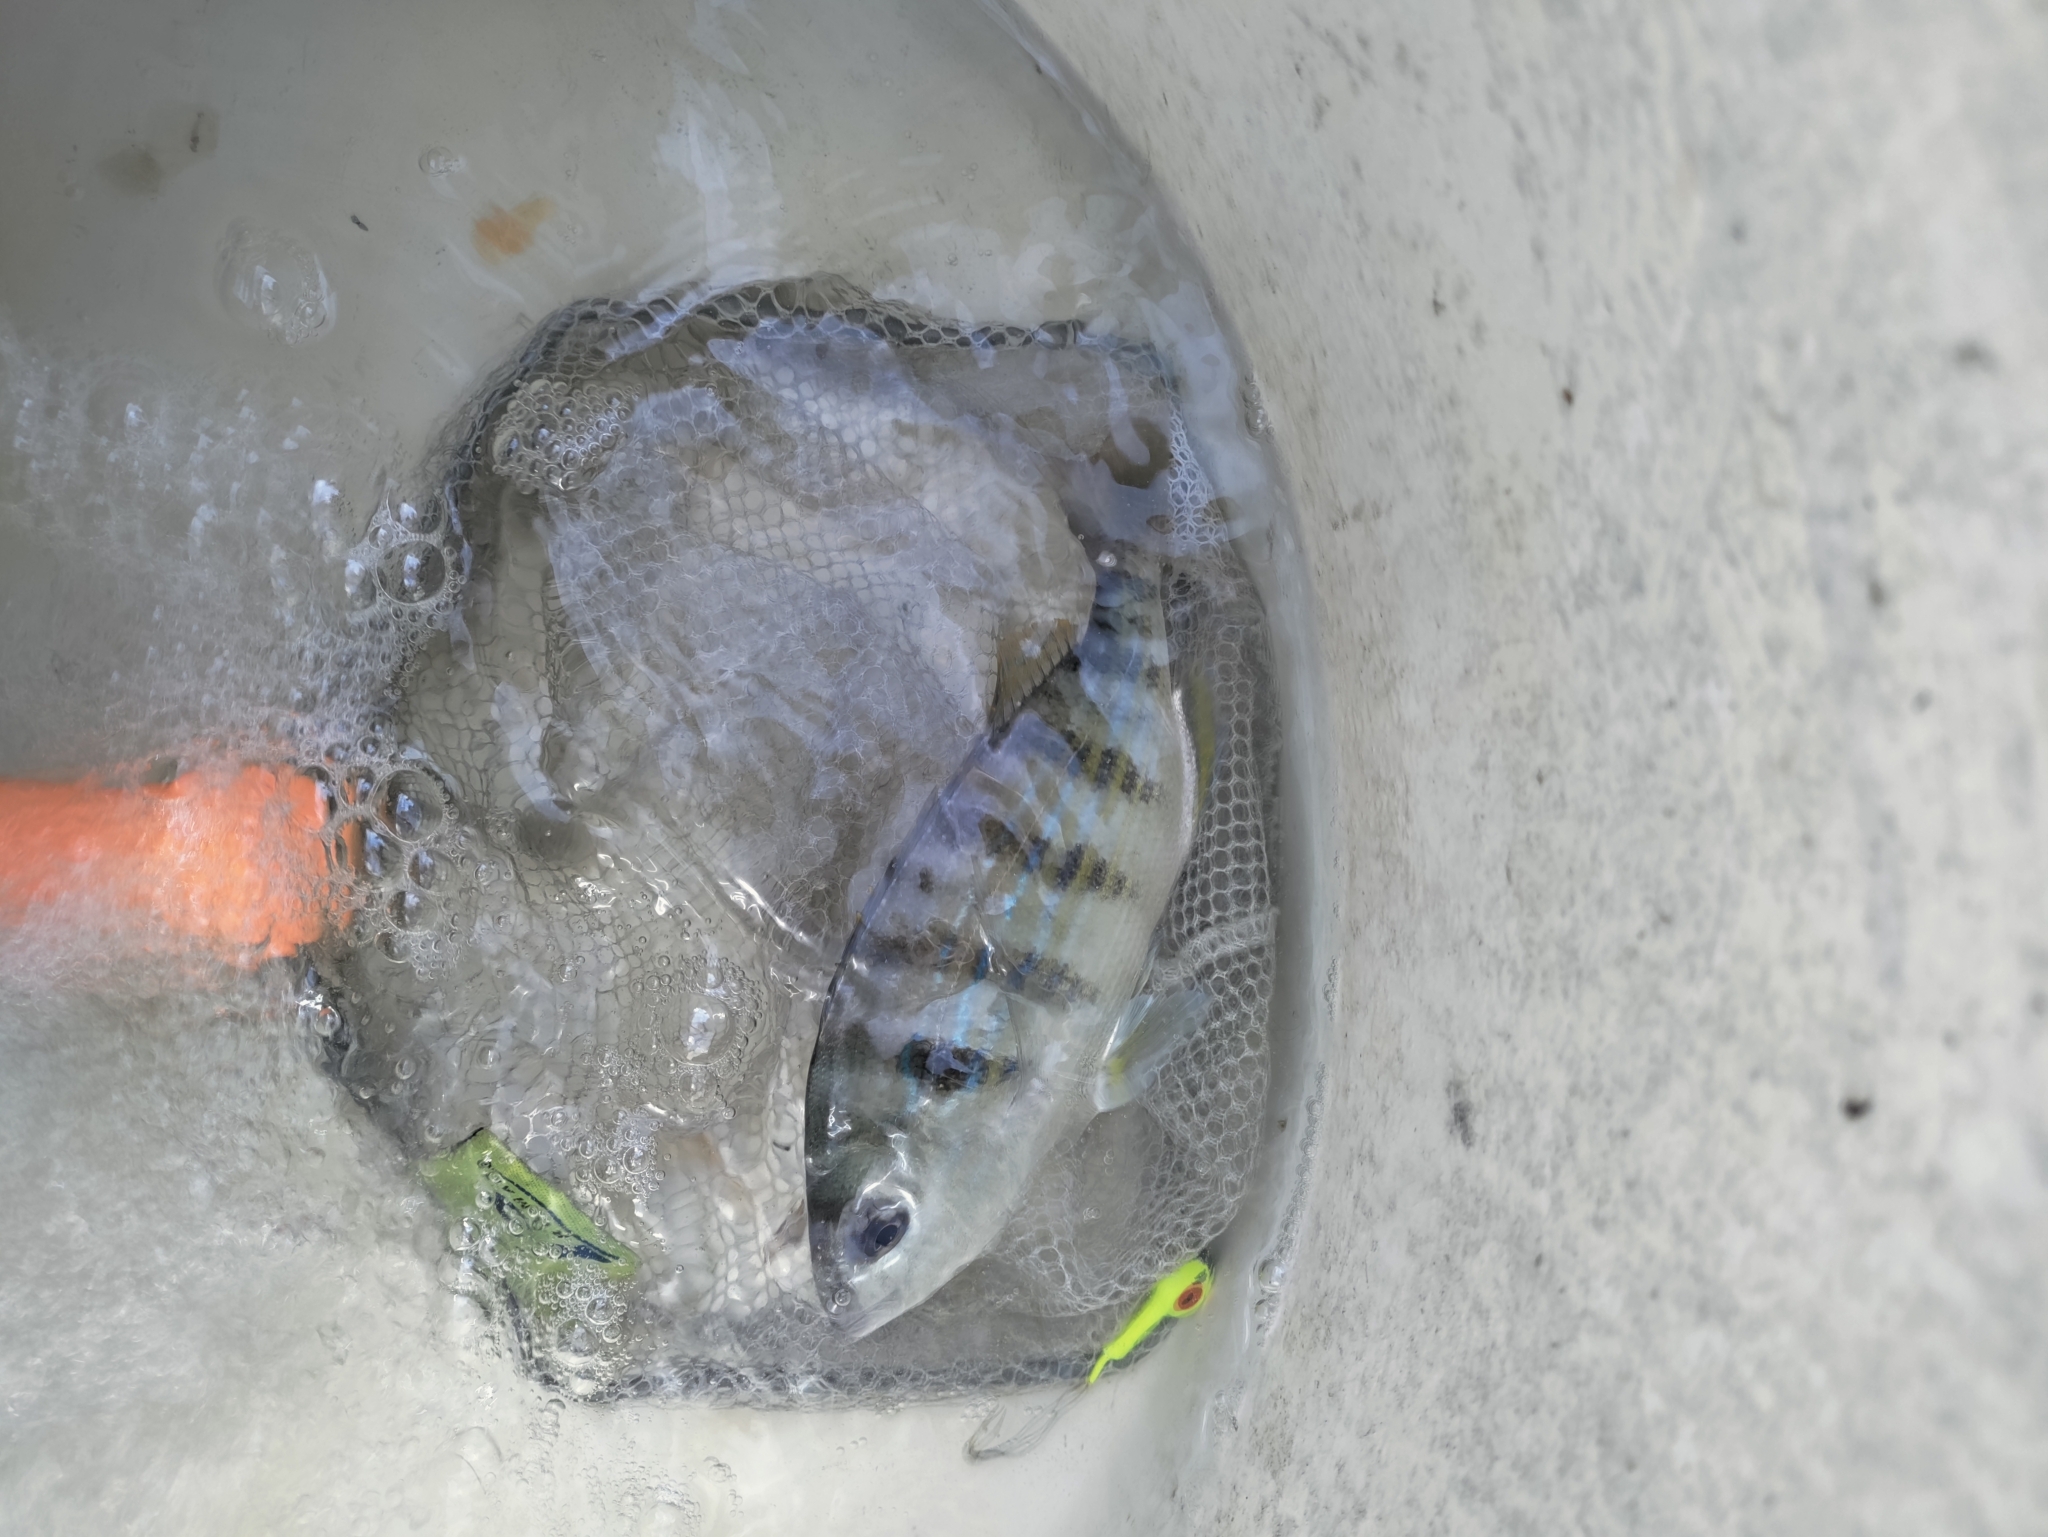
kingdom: Animalia
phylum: Chordata
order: Perciformes
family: Sparidae
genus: Lagodon
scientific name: Lagodon rhomboides
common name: Pinfish
